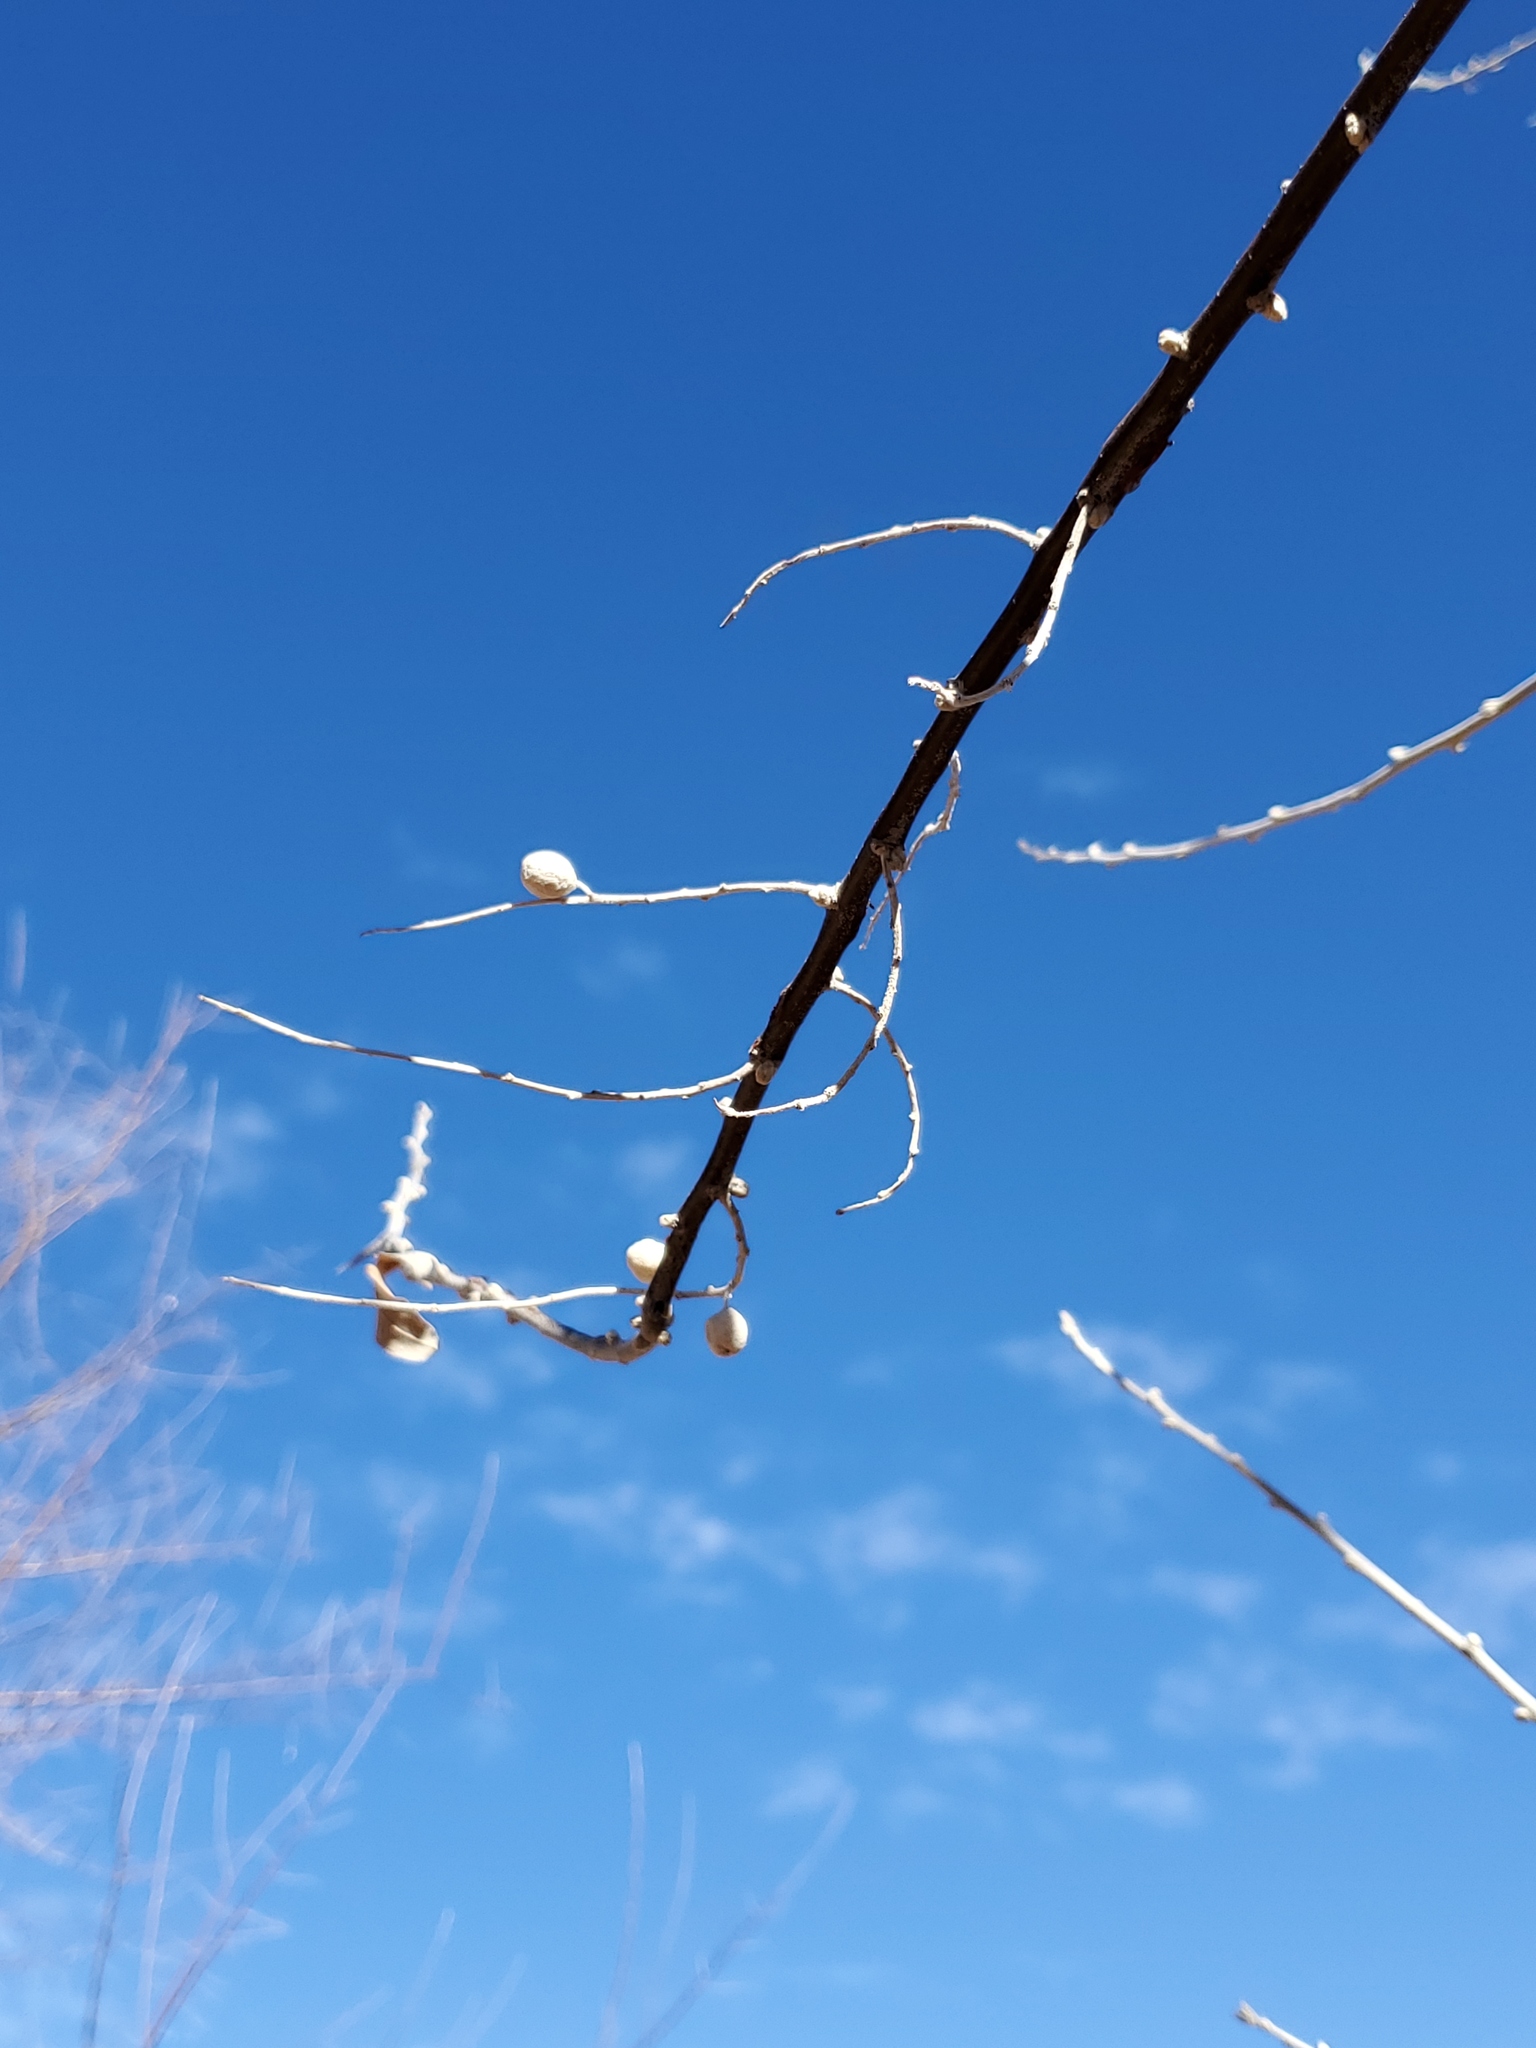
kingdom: Plantae
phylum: Tracheophyta
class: Magnoliopsida
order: Rosales
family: Elaeagnaceae
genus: Elaeagnus
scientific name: Elaeagnus angustifolia
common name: Russian olive
